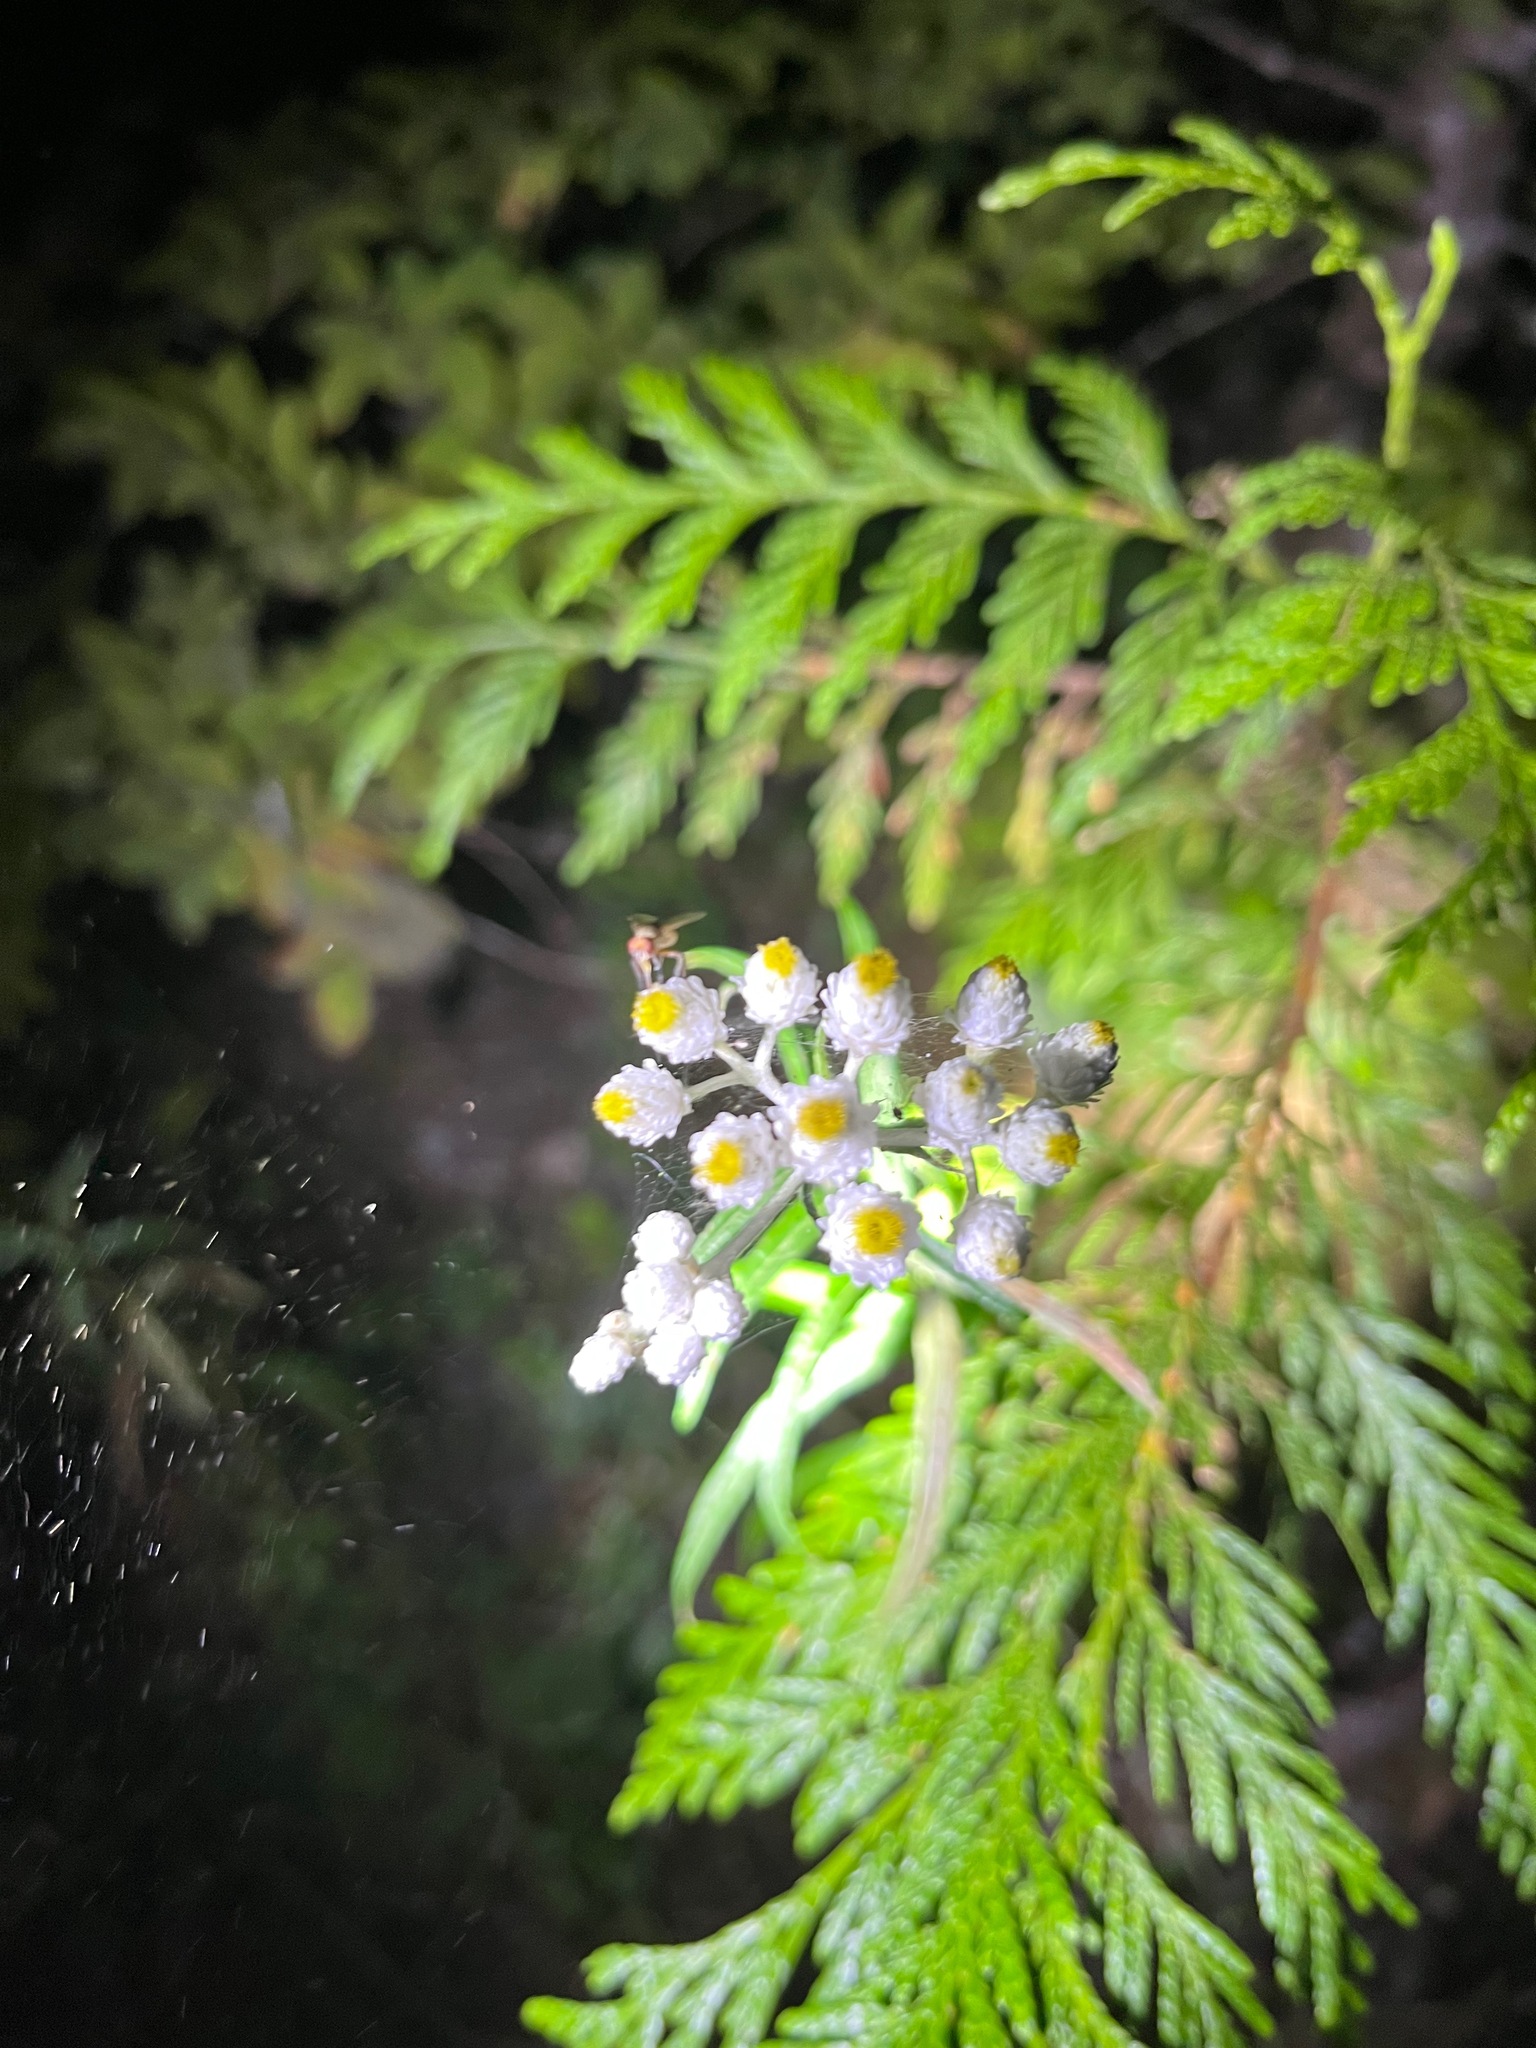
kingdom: Plantae
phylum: Tracheophyta
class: Magnoliopsida
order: Asterales
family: Asteraceae
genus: Anaphalis
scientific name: Anaphalis margaritacea
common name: Pearly everlasting
